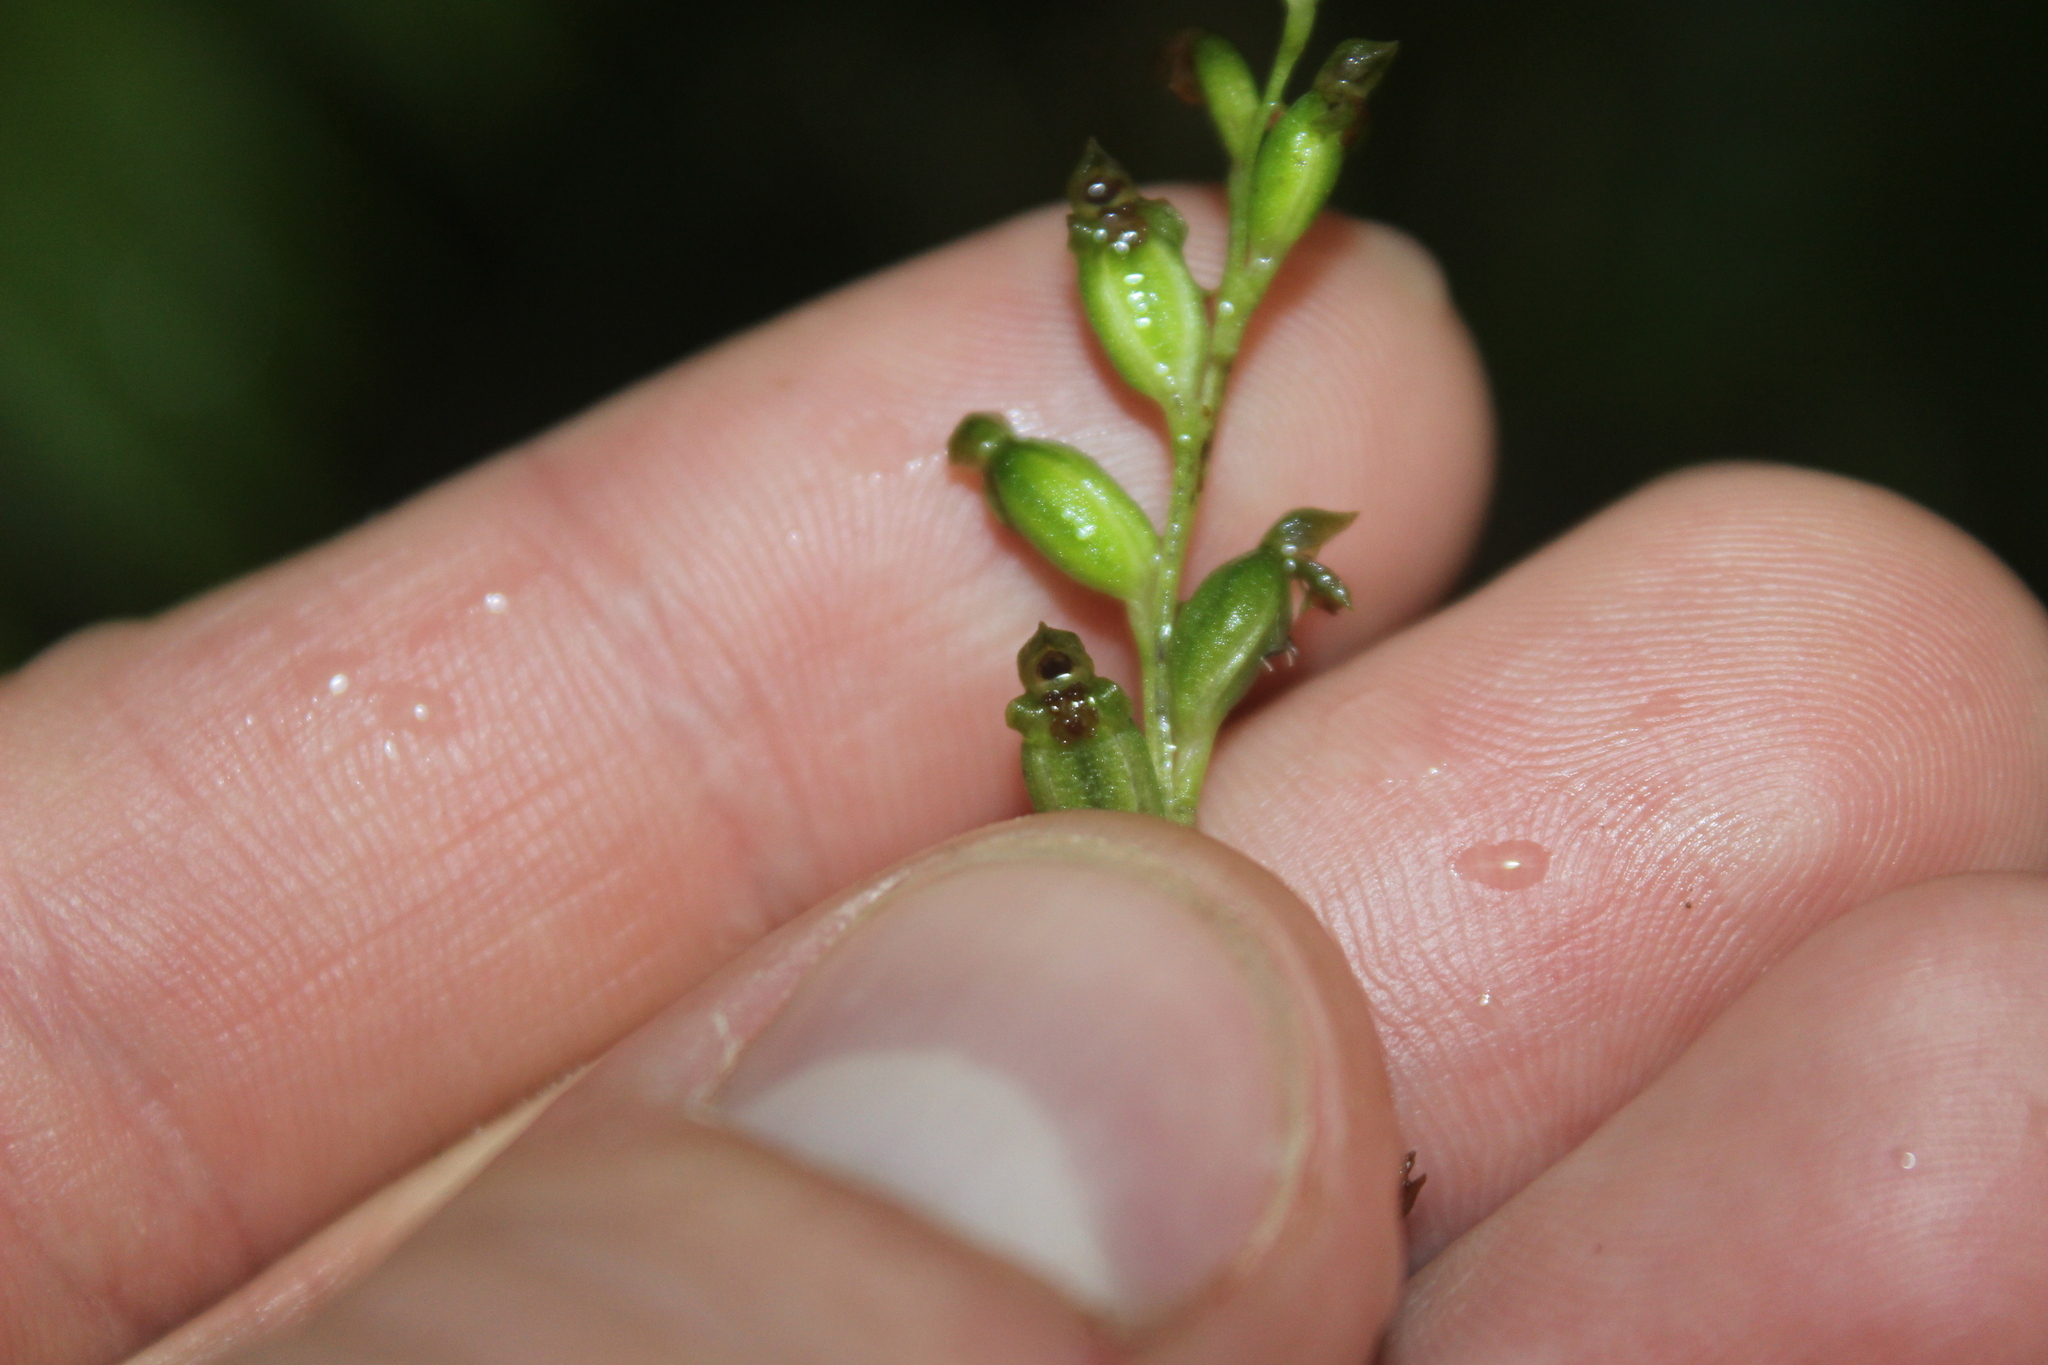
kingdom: Plantae
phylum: Tracheophyta
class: Liliopsida
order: Asparagales
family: Orchidaceae
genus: Microtis
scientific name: Microtis unifolia
